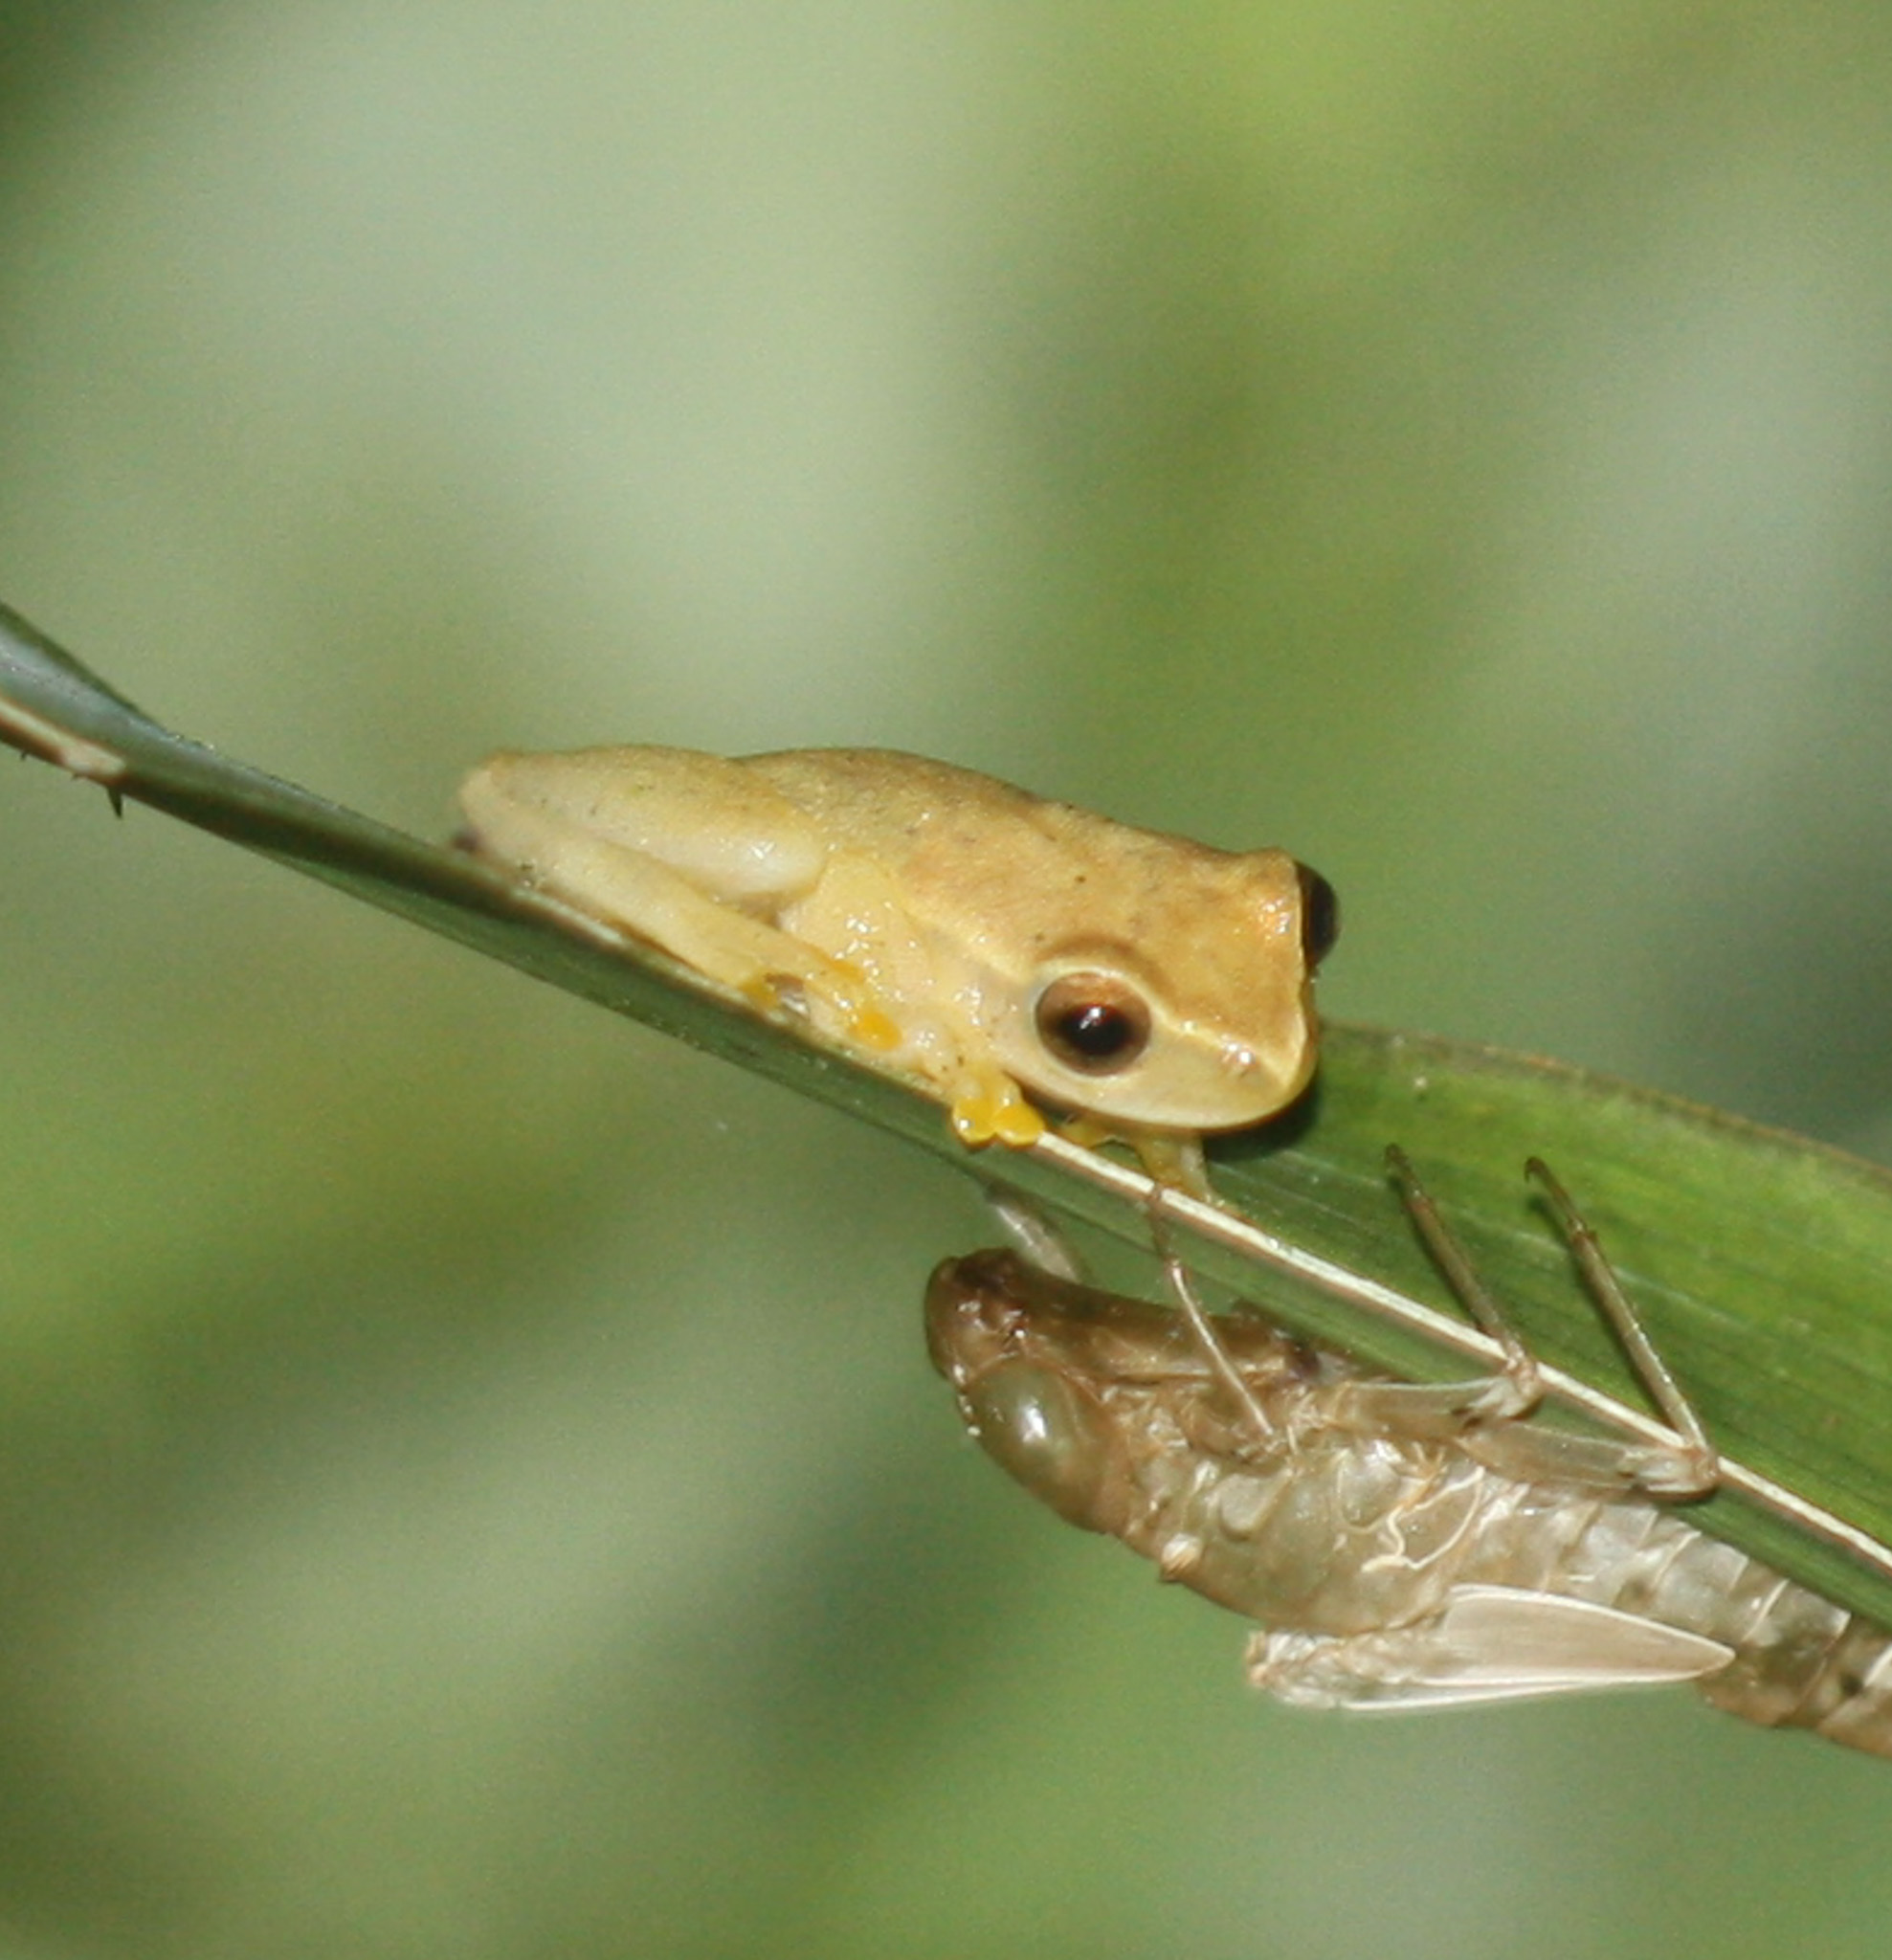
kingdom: Animalia
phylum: Chordata
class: Amphibia
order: Anura
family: Hylidae
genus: Dendropsophus
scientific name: Dendropsophus microcephalus
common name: Small-headed treefrog
